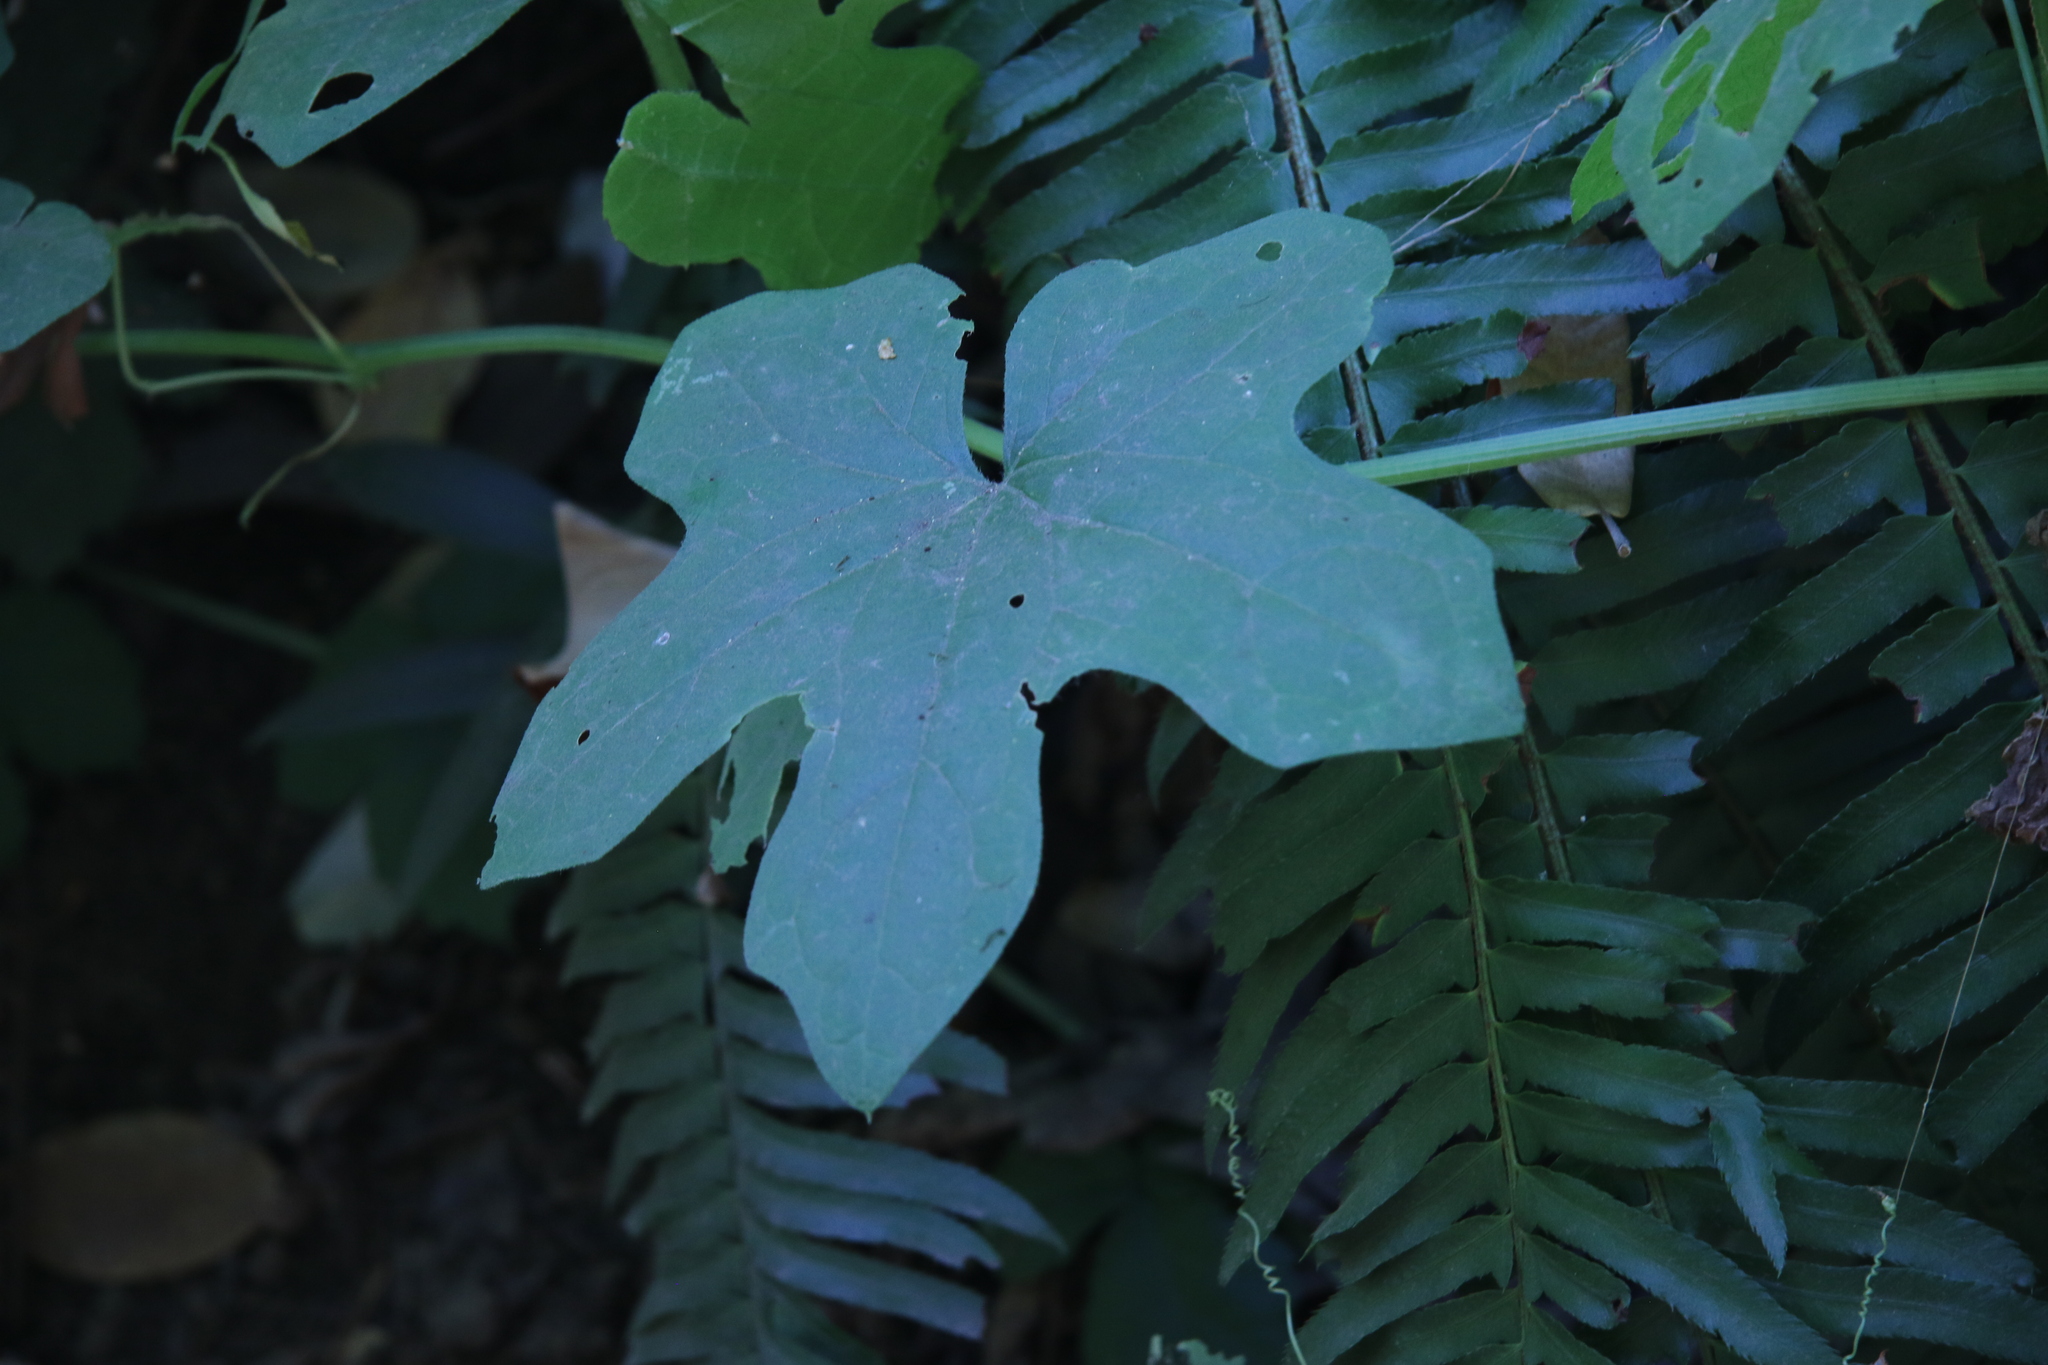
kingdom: Plantae
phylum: Tracheophyta
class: Magnoliopsida
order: Cucurbitales
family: Cucurbitaceae
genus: Marah
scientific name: Marah
